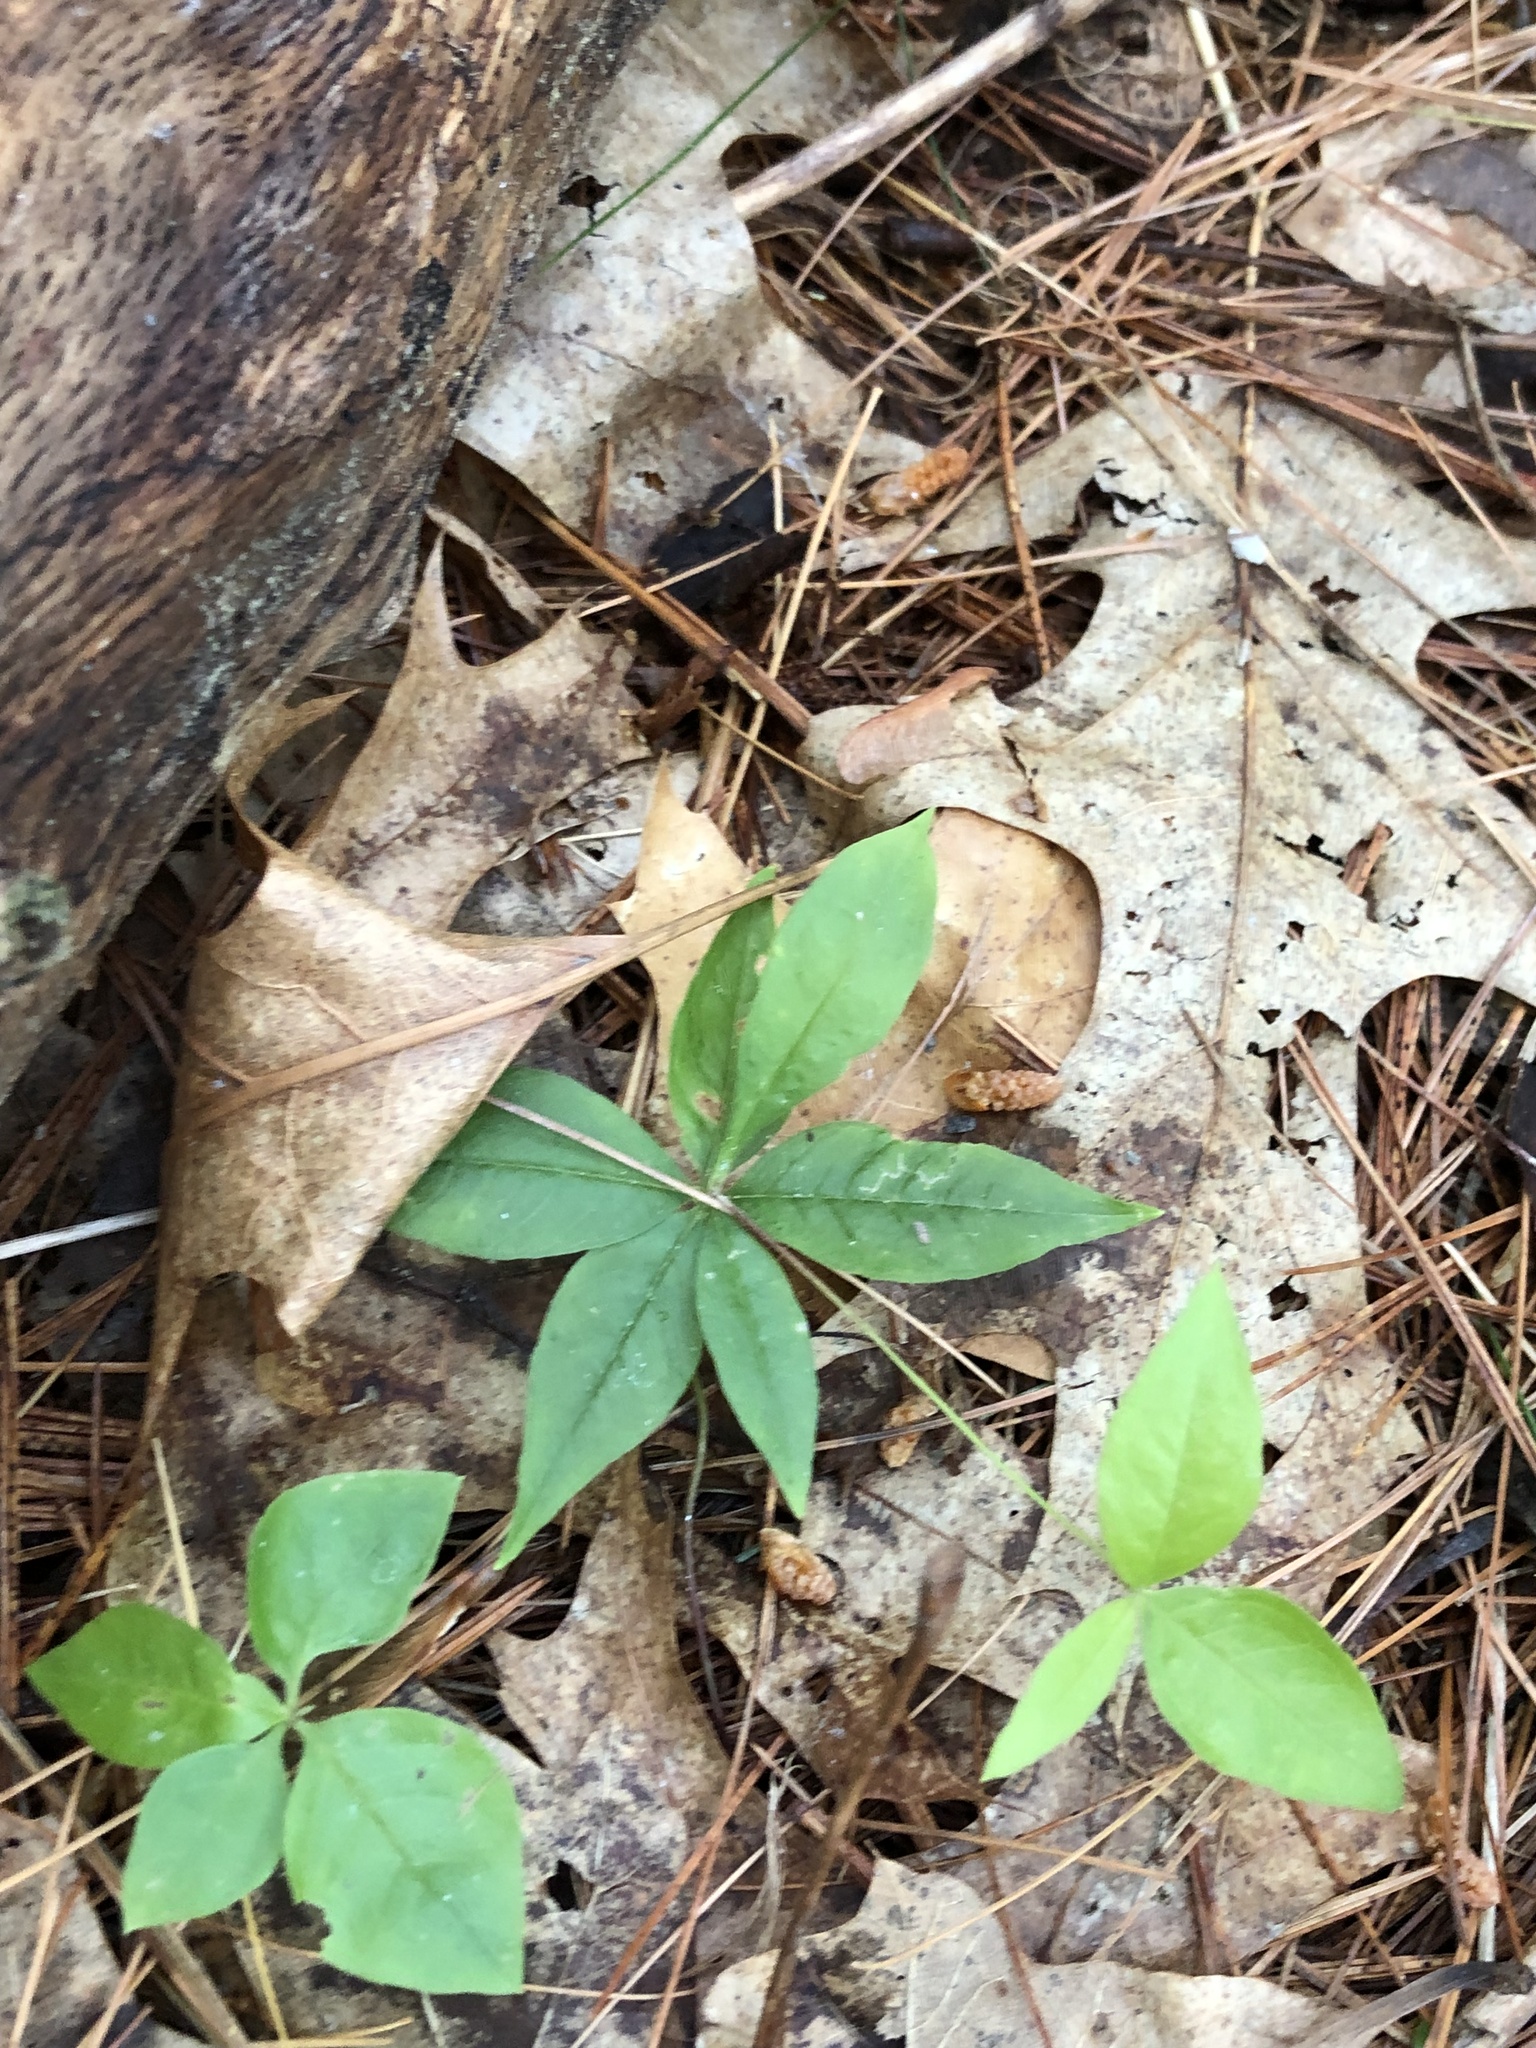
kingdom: Plantae
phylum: Tracheophyta
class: Magnoliopsida
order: Ericales
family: Primulaceae
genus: Lysimachia
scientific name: Lysimachia borealis
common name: American starflower
